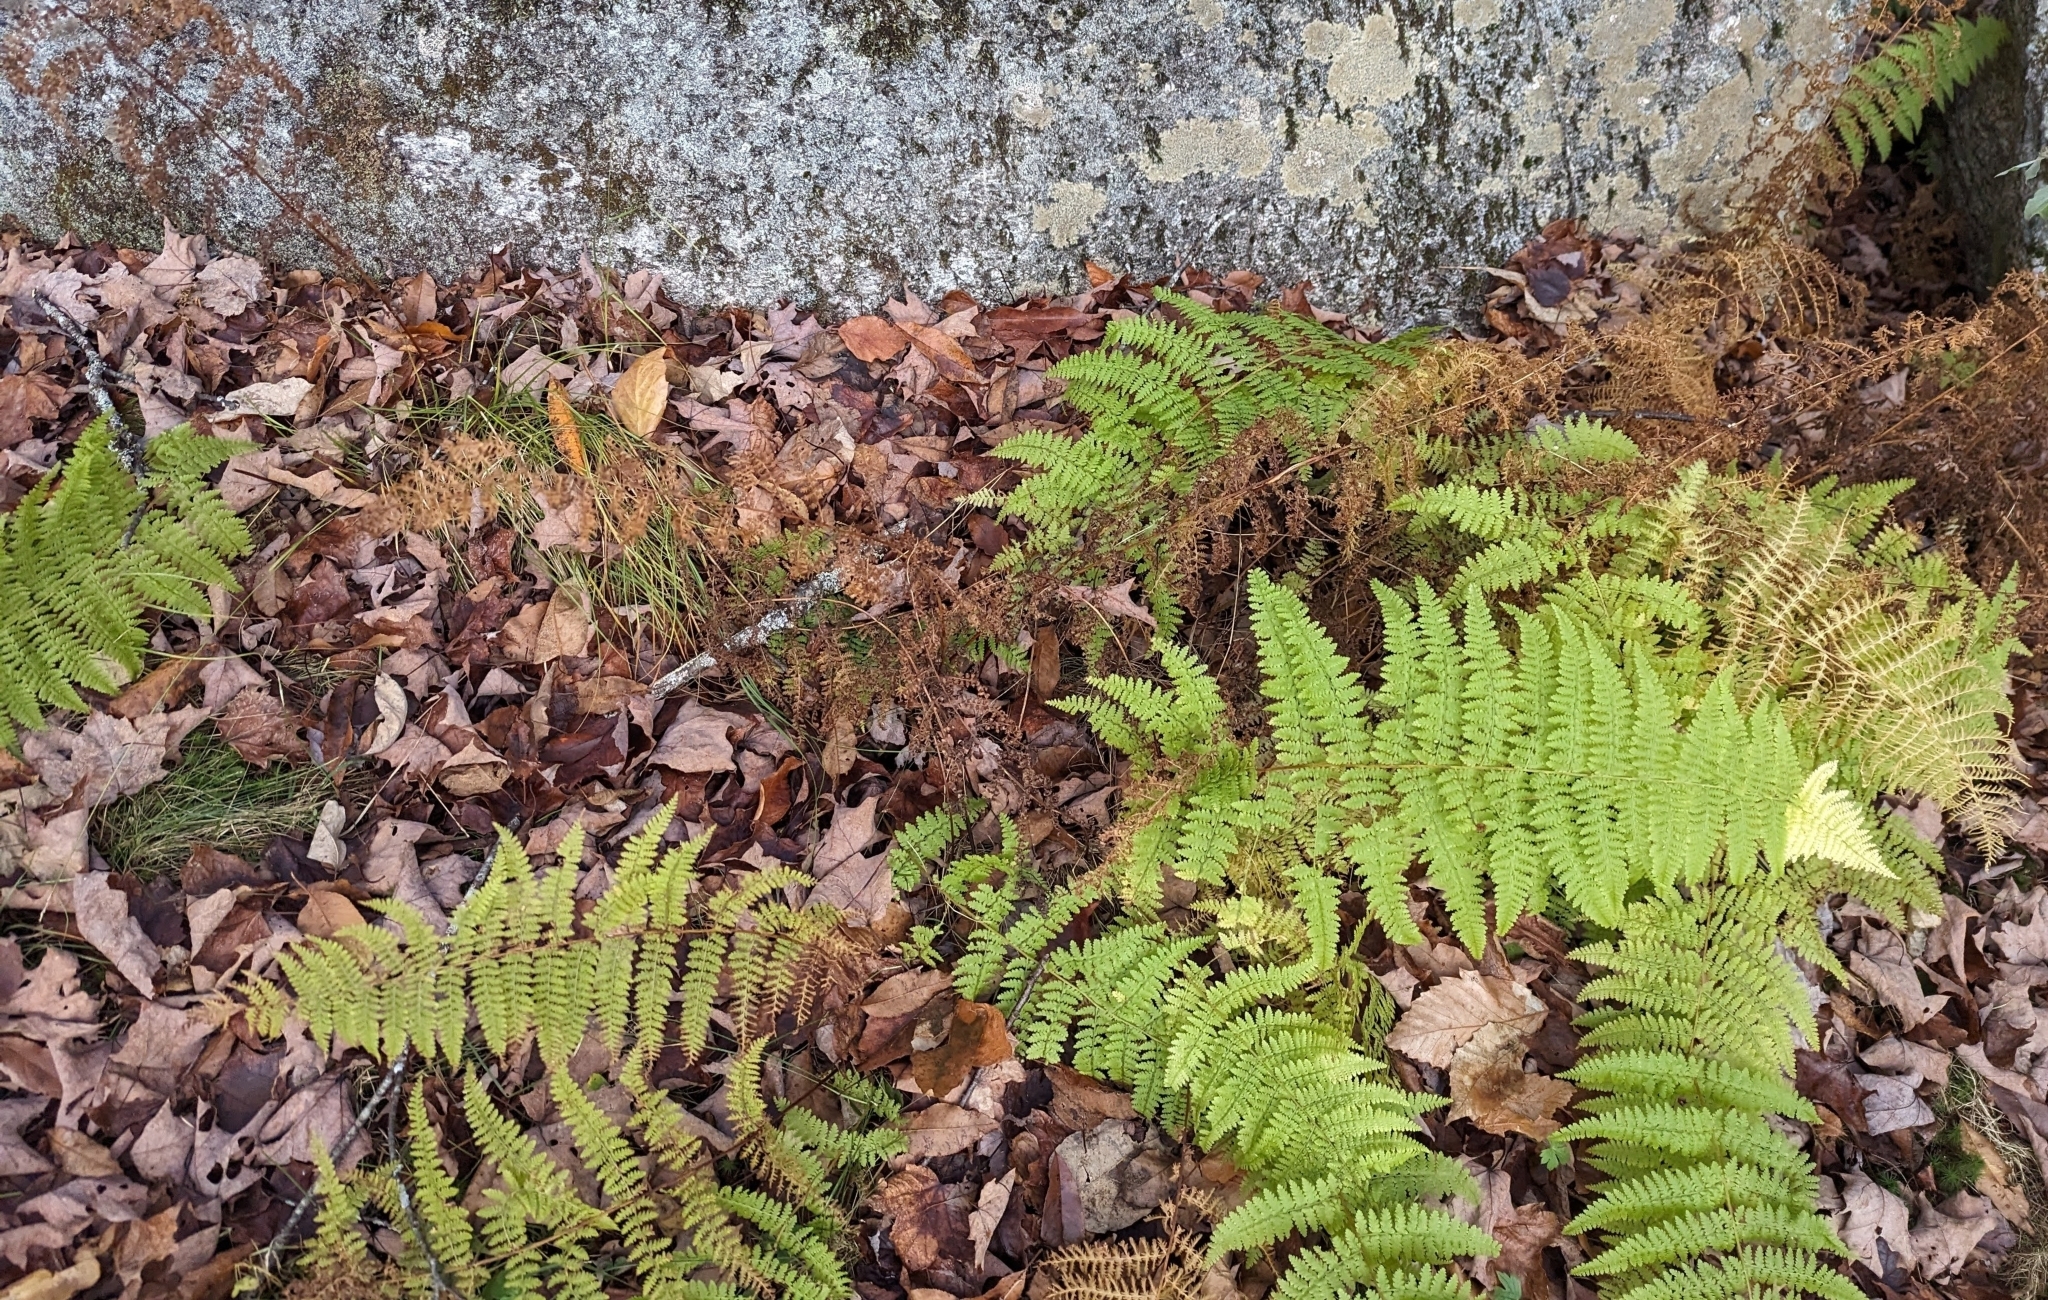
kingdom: Plantae
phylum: Tracheophyta
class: Polypodiopsida
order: Polypodiales
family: Dennstaedtiaceae
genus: Sitobolium
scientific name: Sitobolium punctilobum
